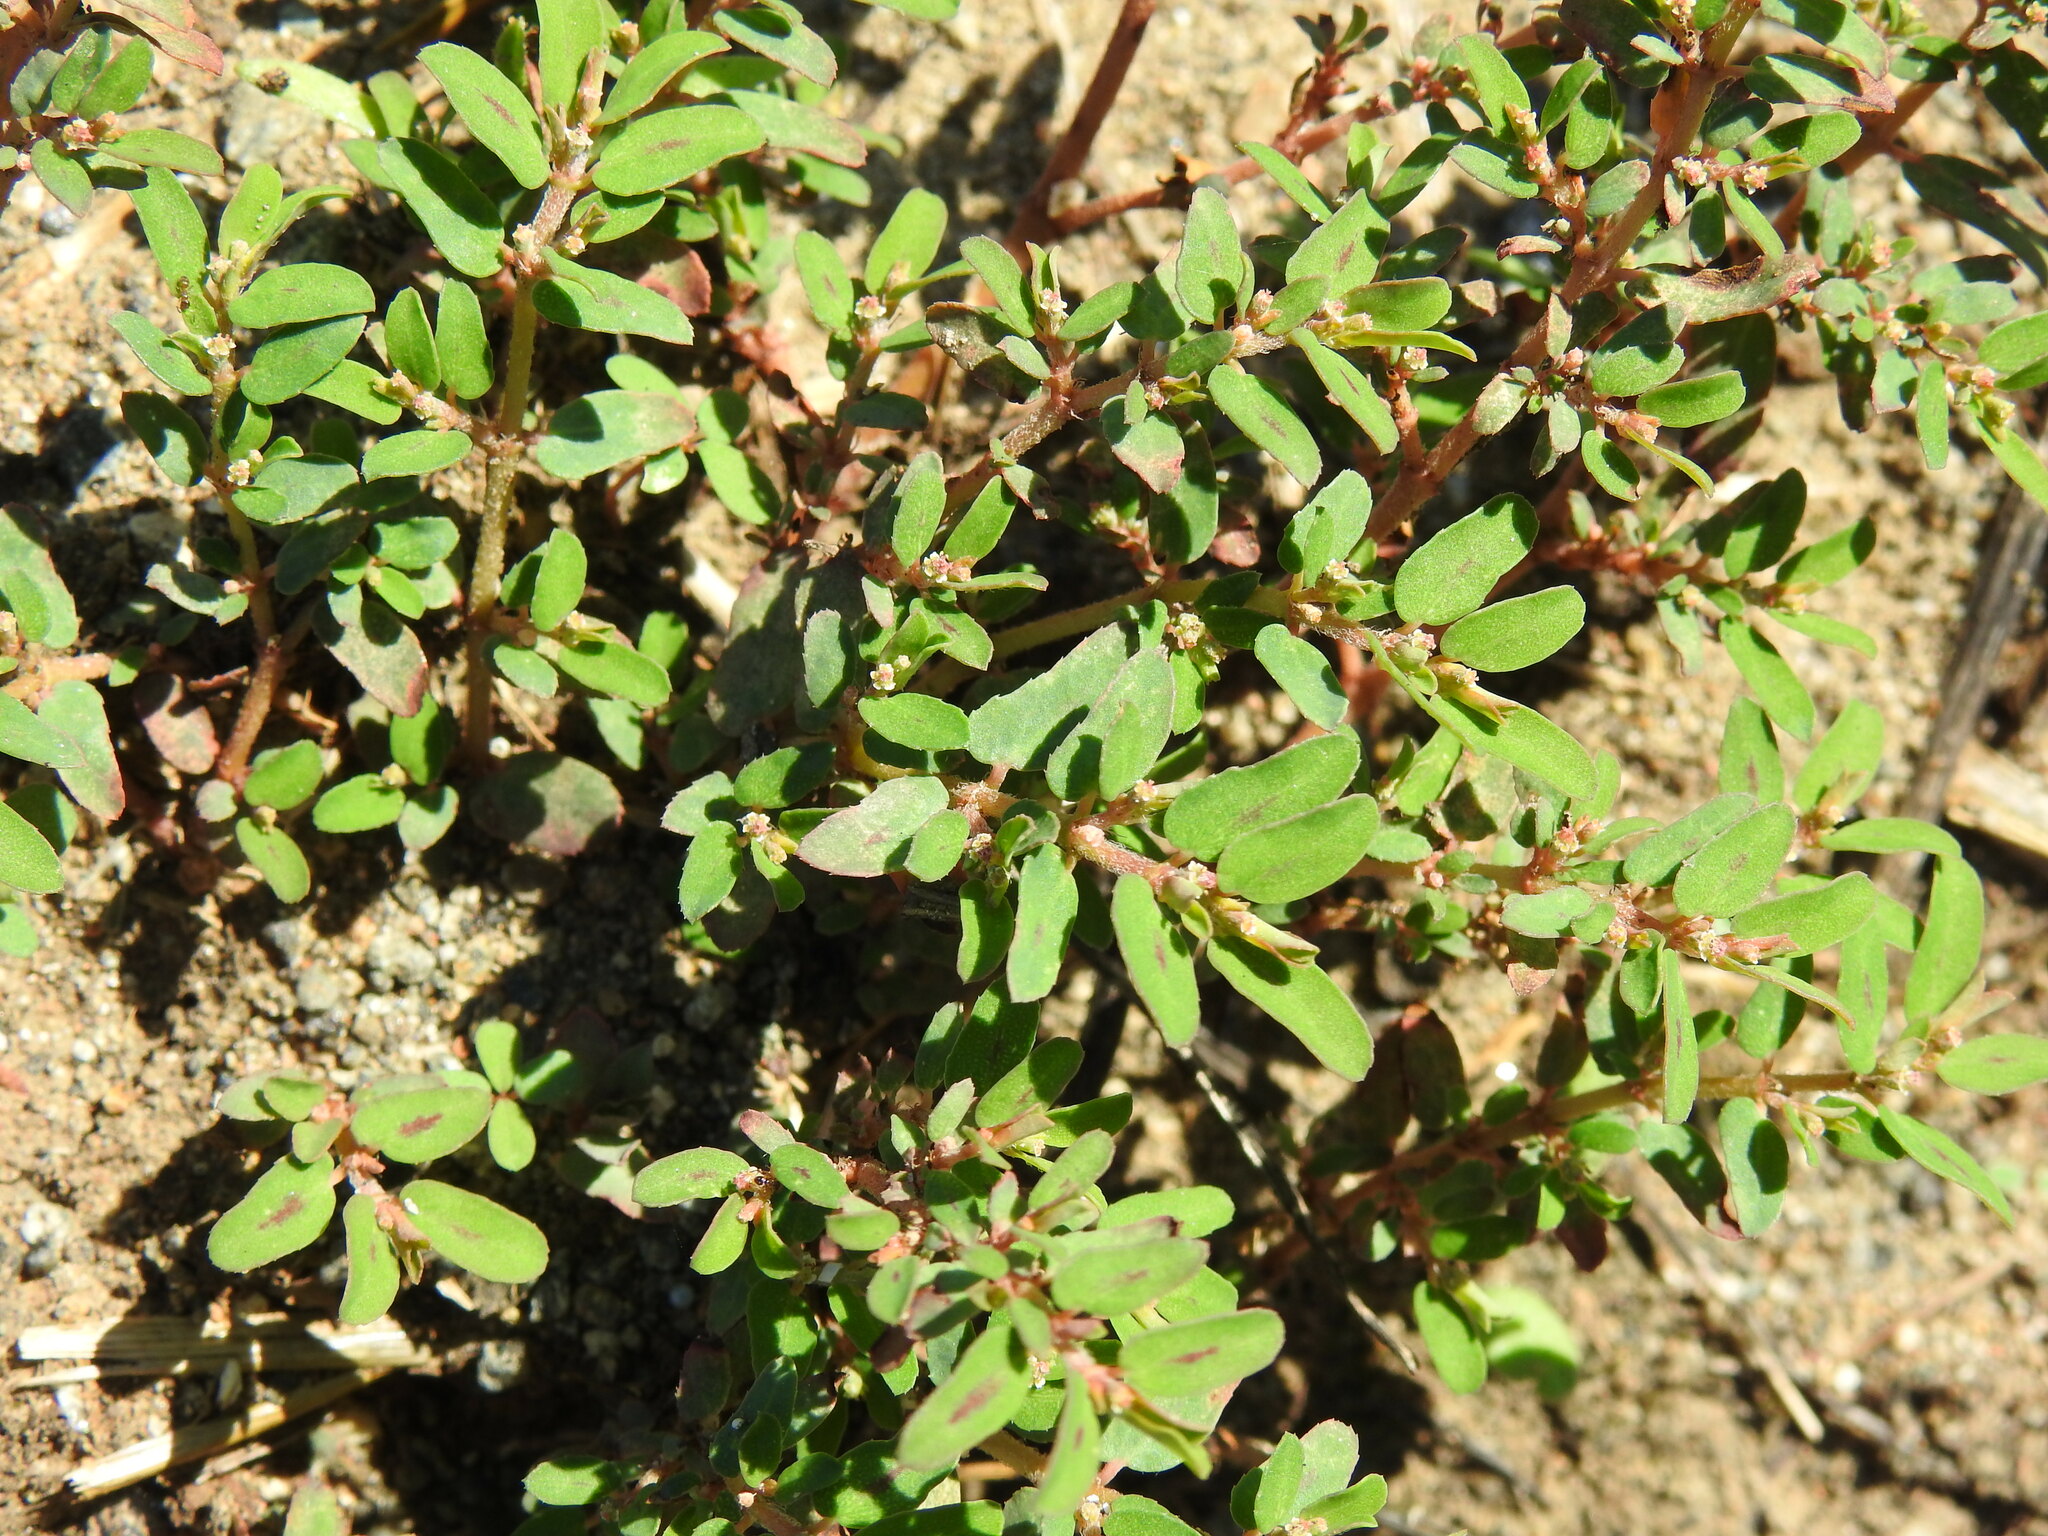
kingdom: Plantae
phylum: Tracheophyta
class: Magnoliopsida
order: Malpighiales
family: Euphorbiaceae
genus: Euphorbia
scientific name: Euphorbia maculata
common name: Spotted spurge
